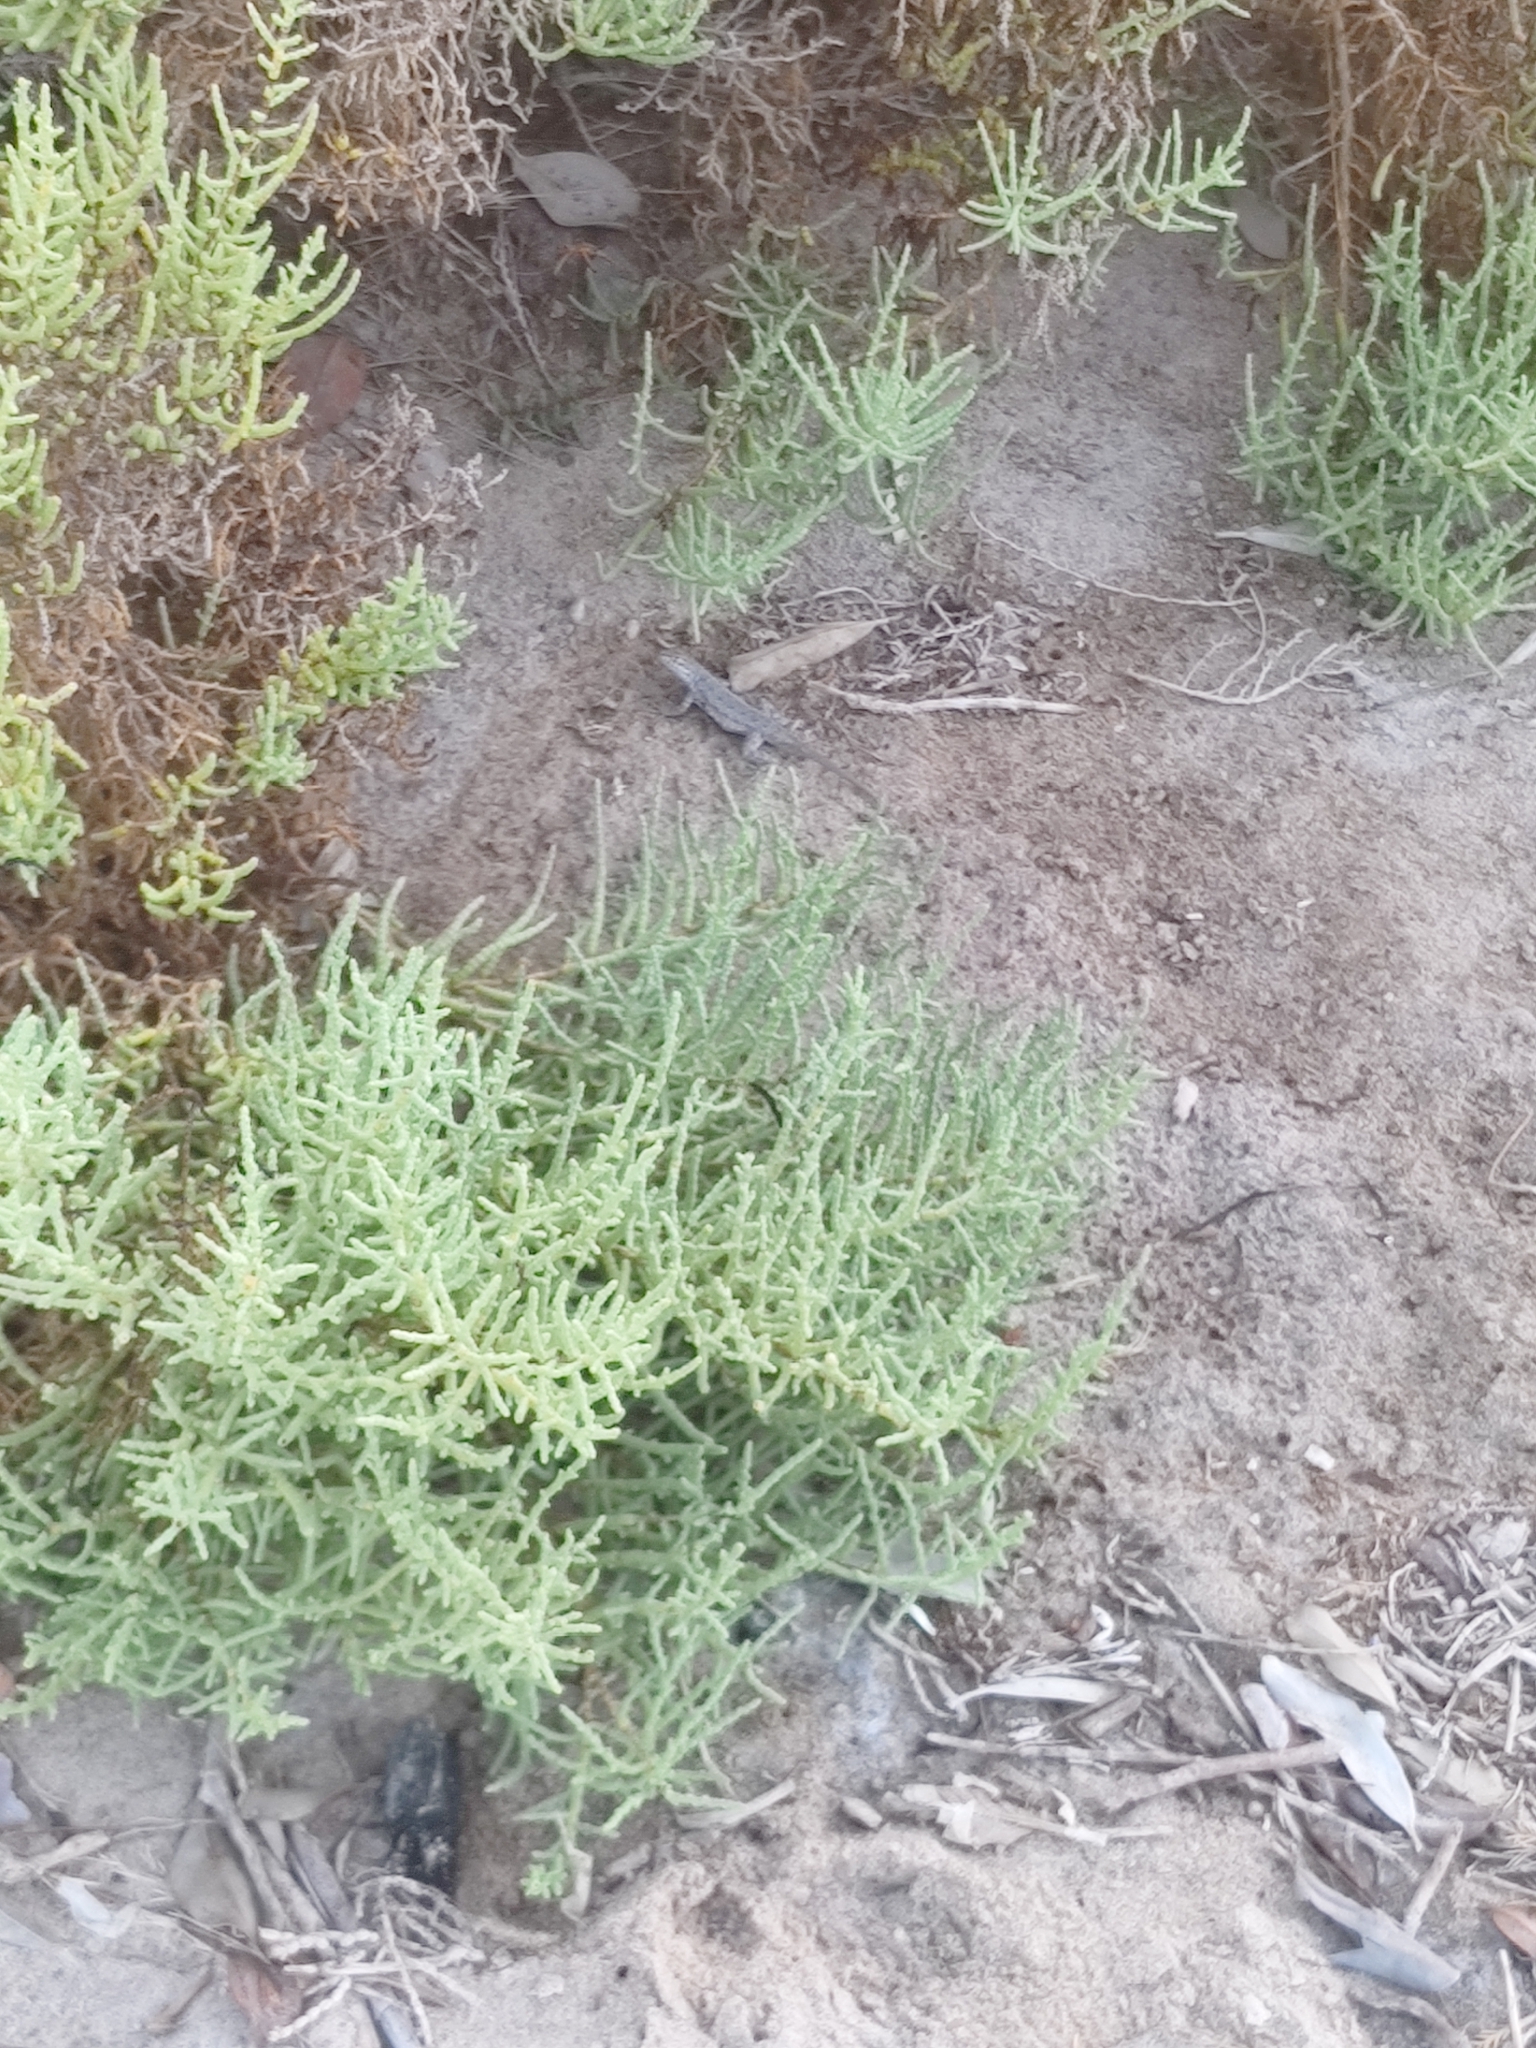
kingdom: Animalia
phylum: Chordata
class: Squamata
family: Phrynosomatidae
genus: Uta
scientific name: Uta stansburiana
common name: Side-blotched lizard
